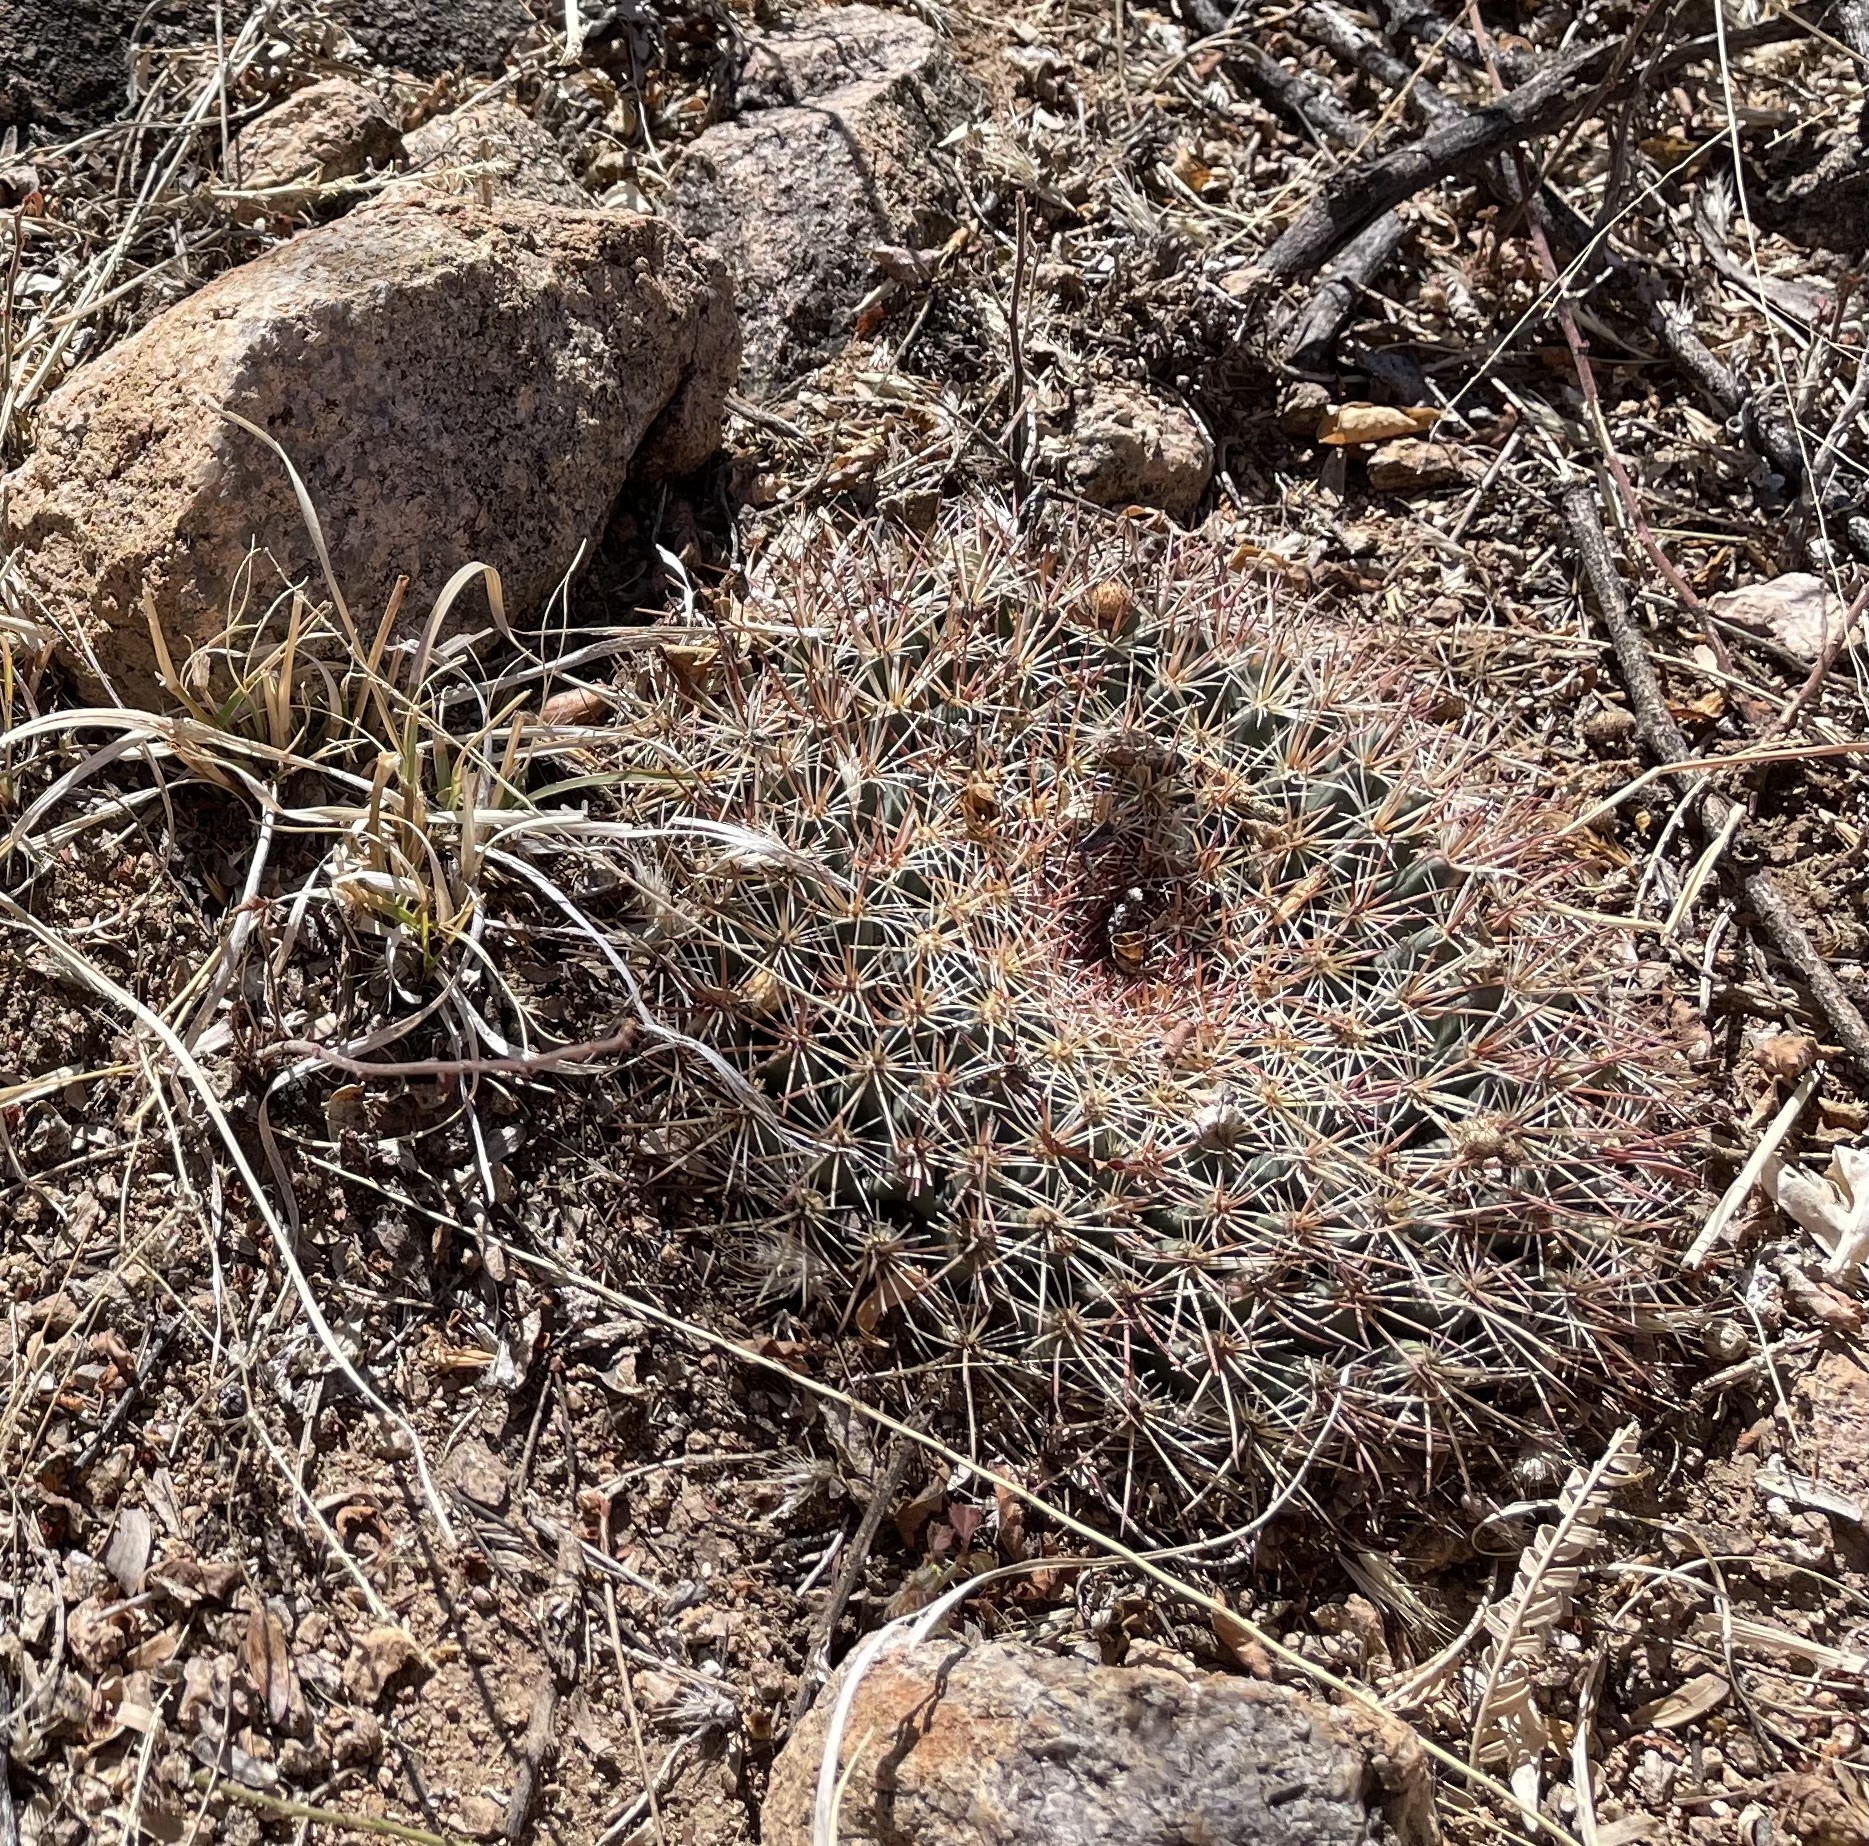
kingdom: Plantae
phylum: Tracheophyta
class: Magnoliopsida
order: Caryophyllales
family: Cactaceae
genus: Mammillaria
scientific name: Mammillaria heyderi
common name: Little nipple cactus
